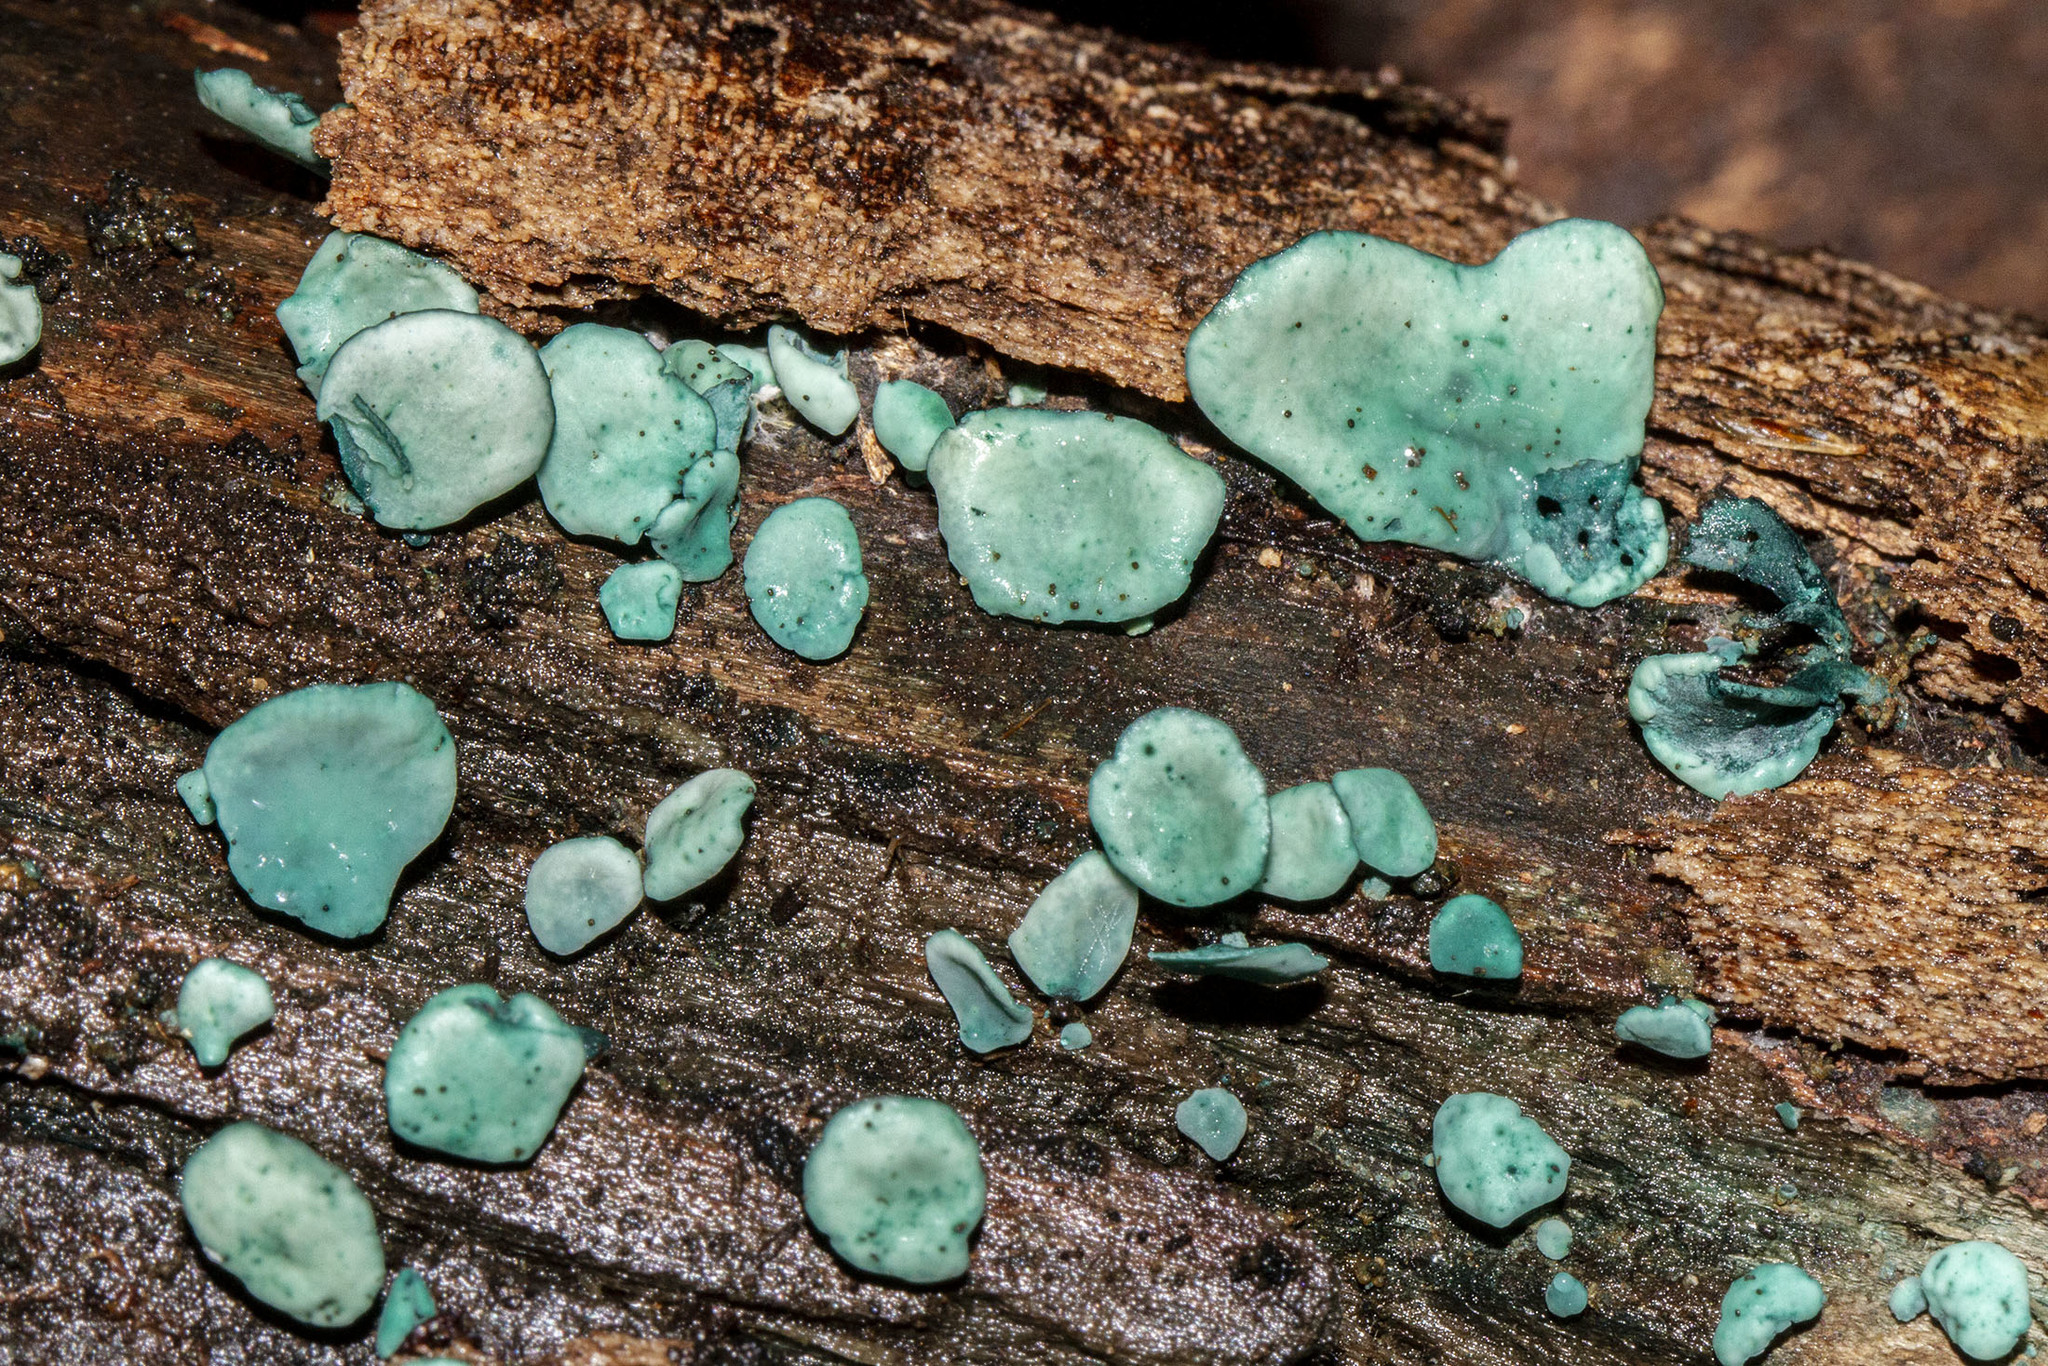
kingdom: Fungi
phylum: Ascomycota
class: Leotiomycetes
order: Helotiales
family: Chlorociboriaceae
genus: Chlorociboria
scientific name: Chlorociboria aeruginascens
